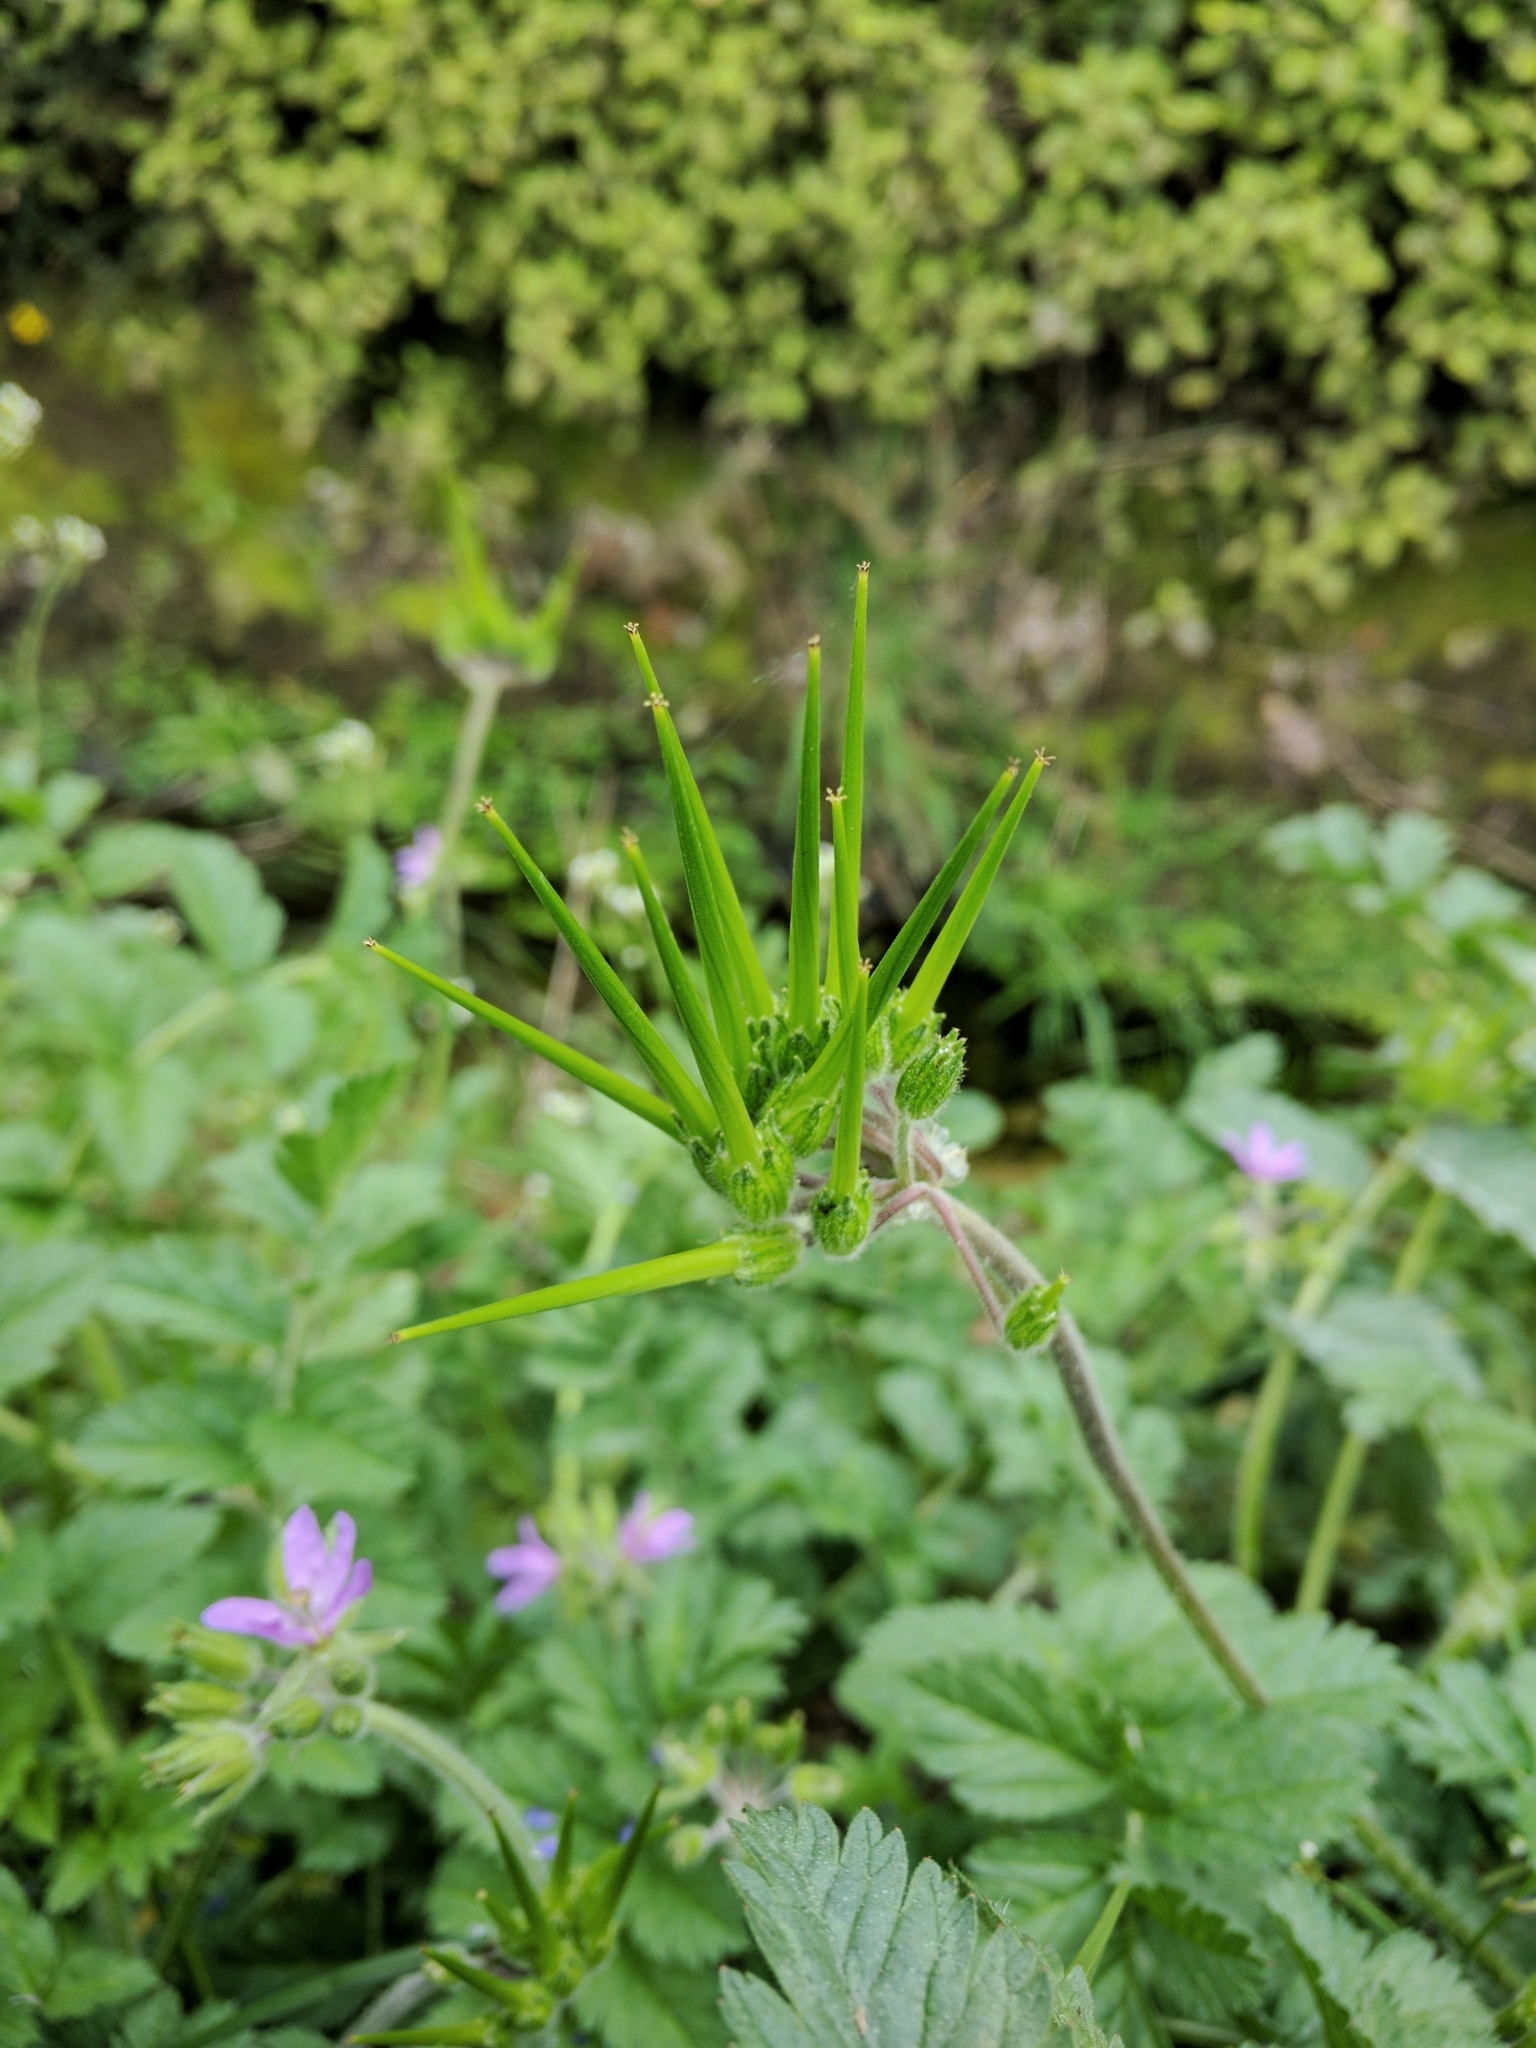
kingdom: Plantae
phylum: Tracheophyta
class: Magnoliopsida
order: Geraniales
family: Geraniaceae
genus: Erodium
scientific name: Erodium moschatum
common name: Musk stork's-bill
